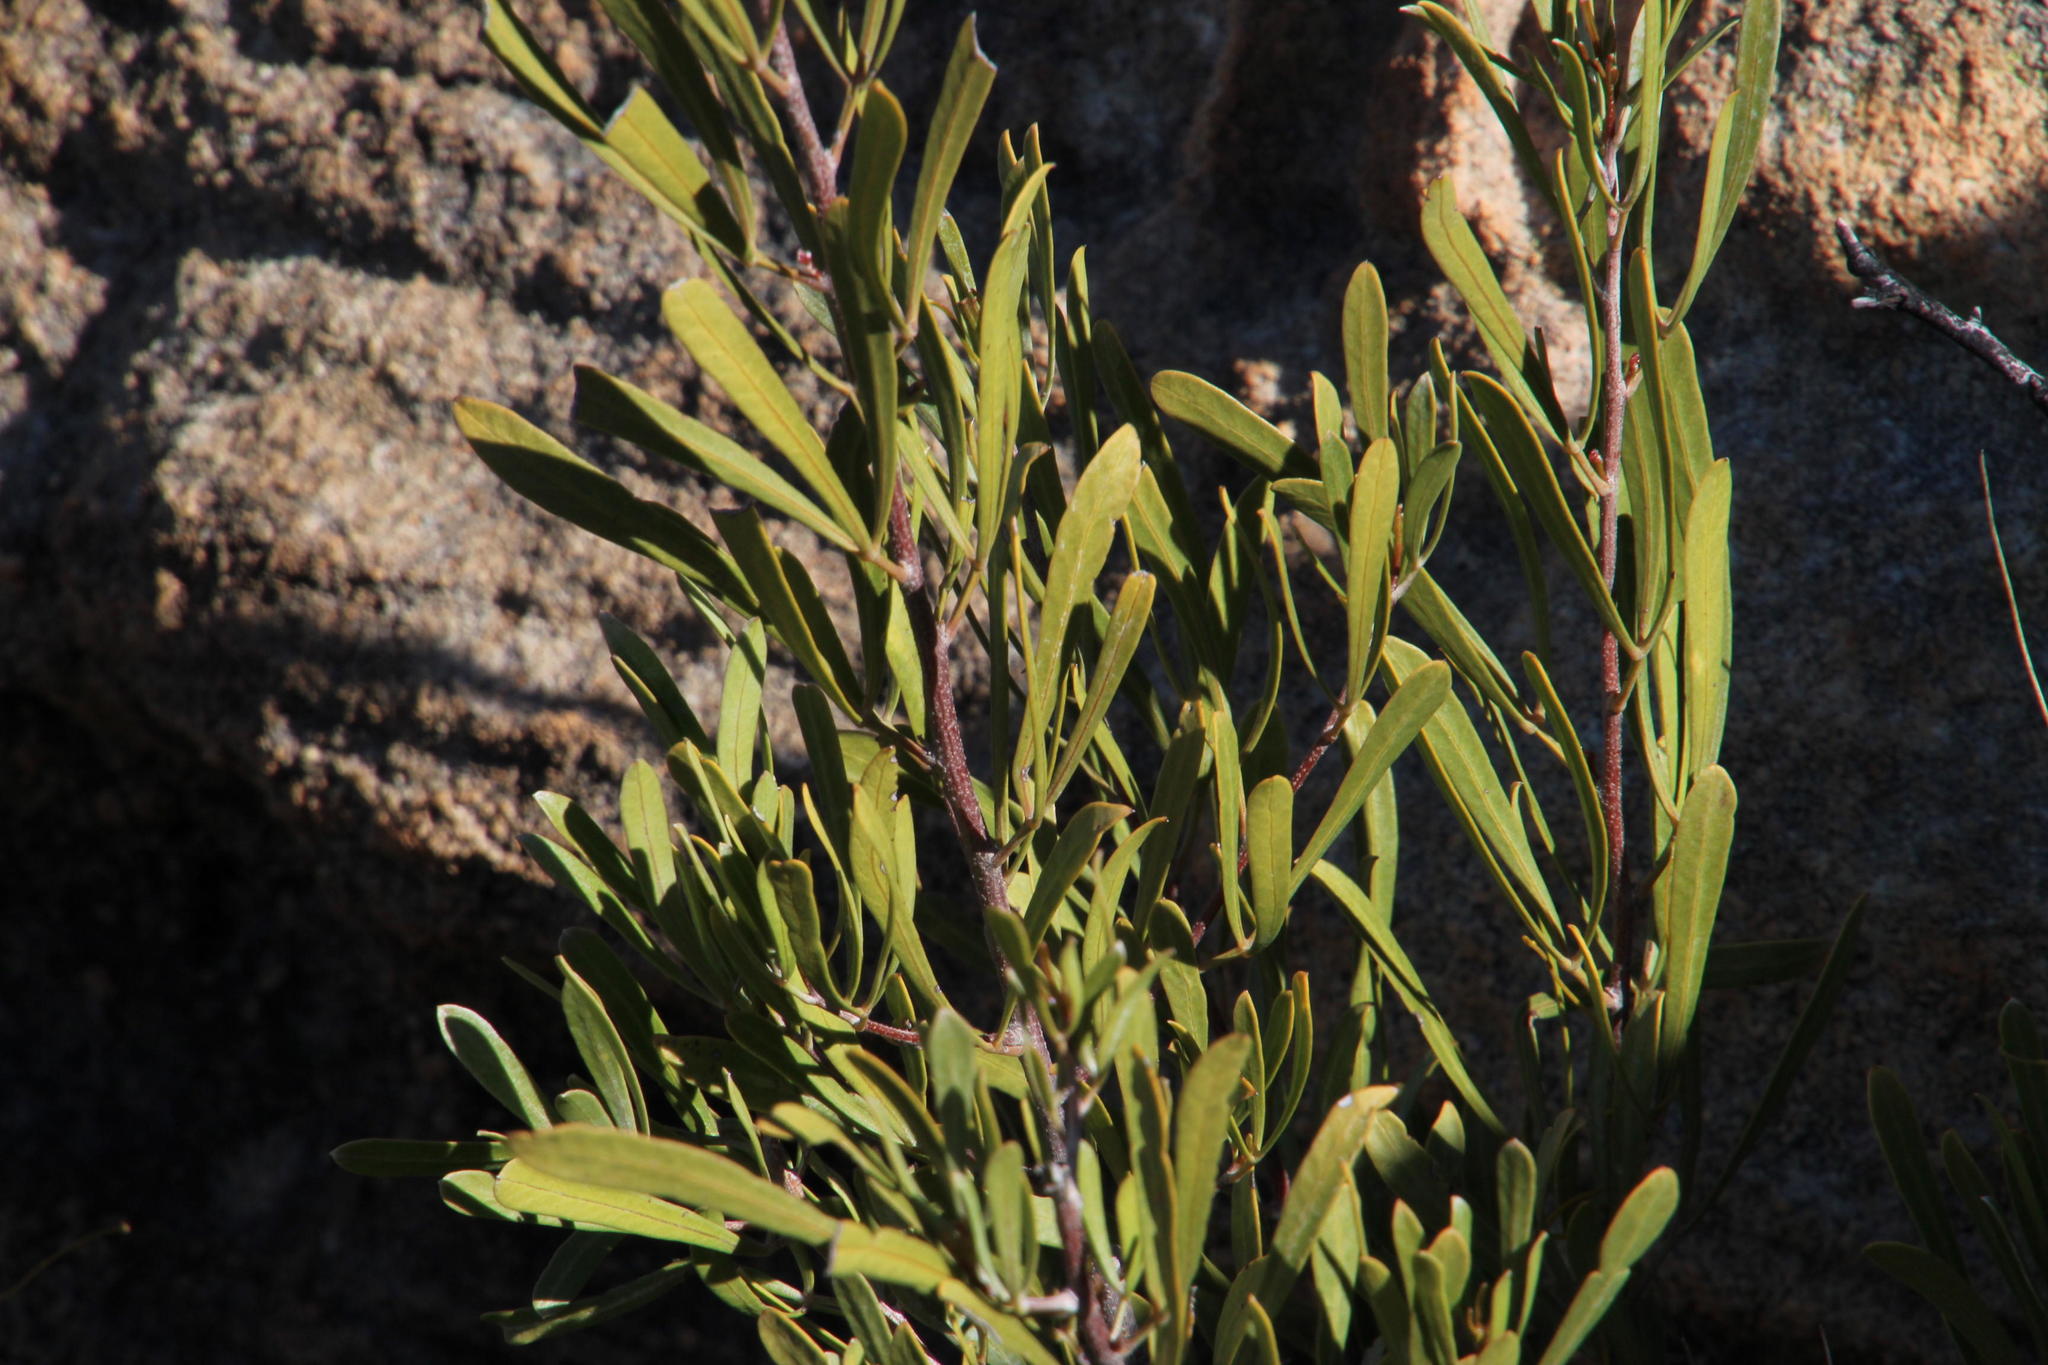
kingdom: Plantae
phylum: Tracheophyta
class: Magnoliopsida
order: Sapindales
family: Anacardiaceae
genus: Searsia
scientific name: Searsia rimosa
